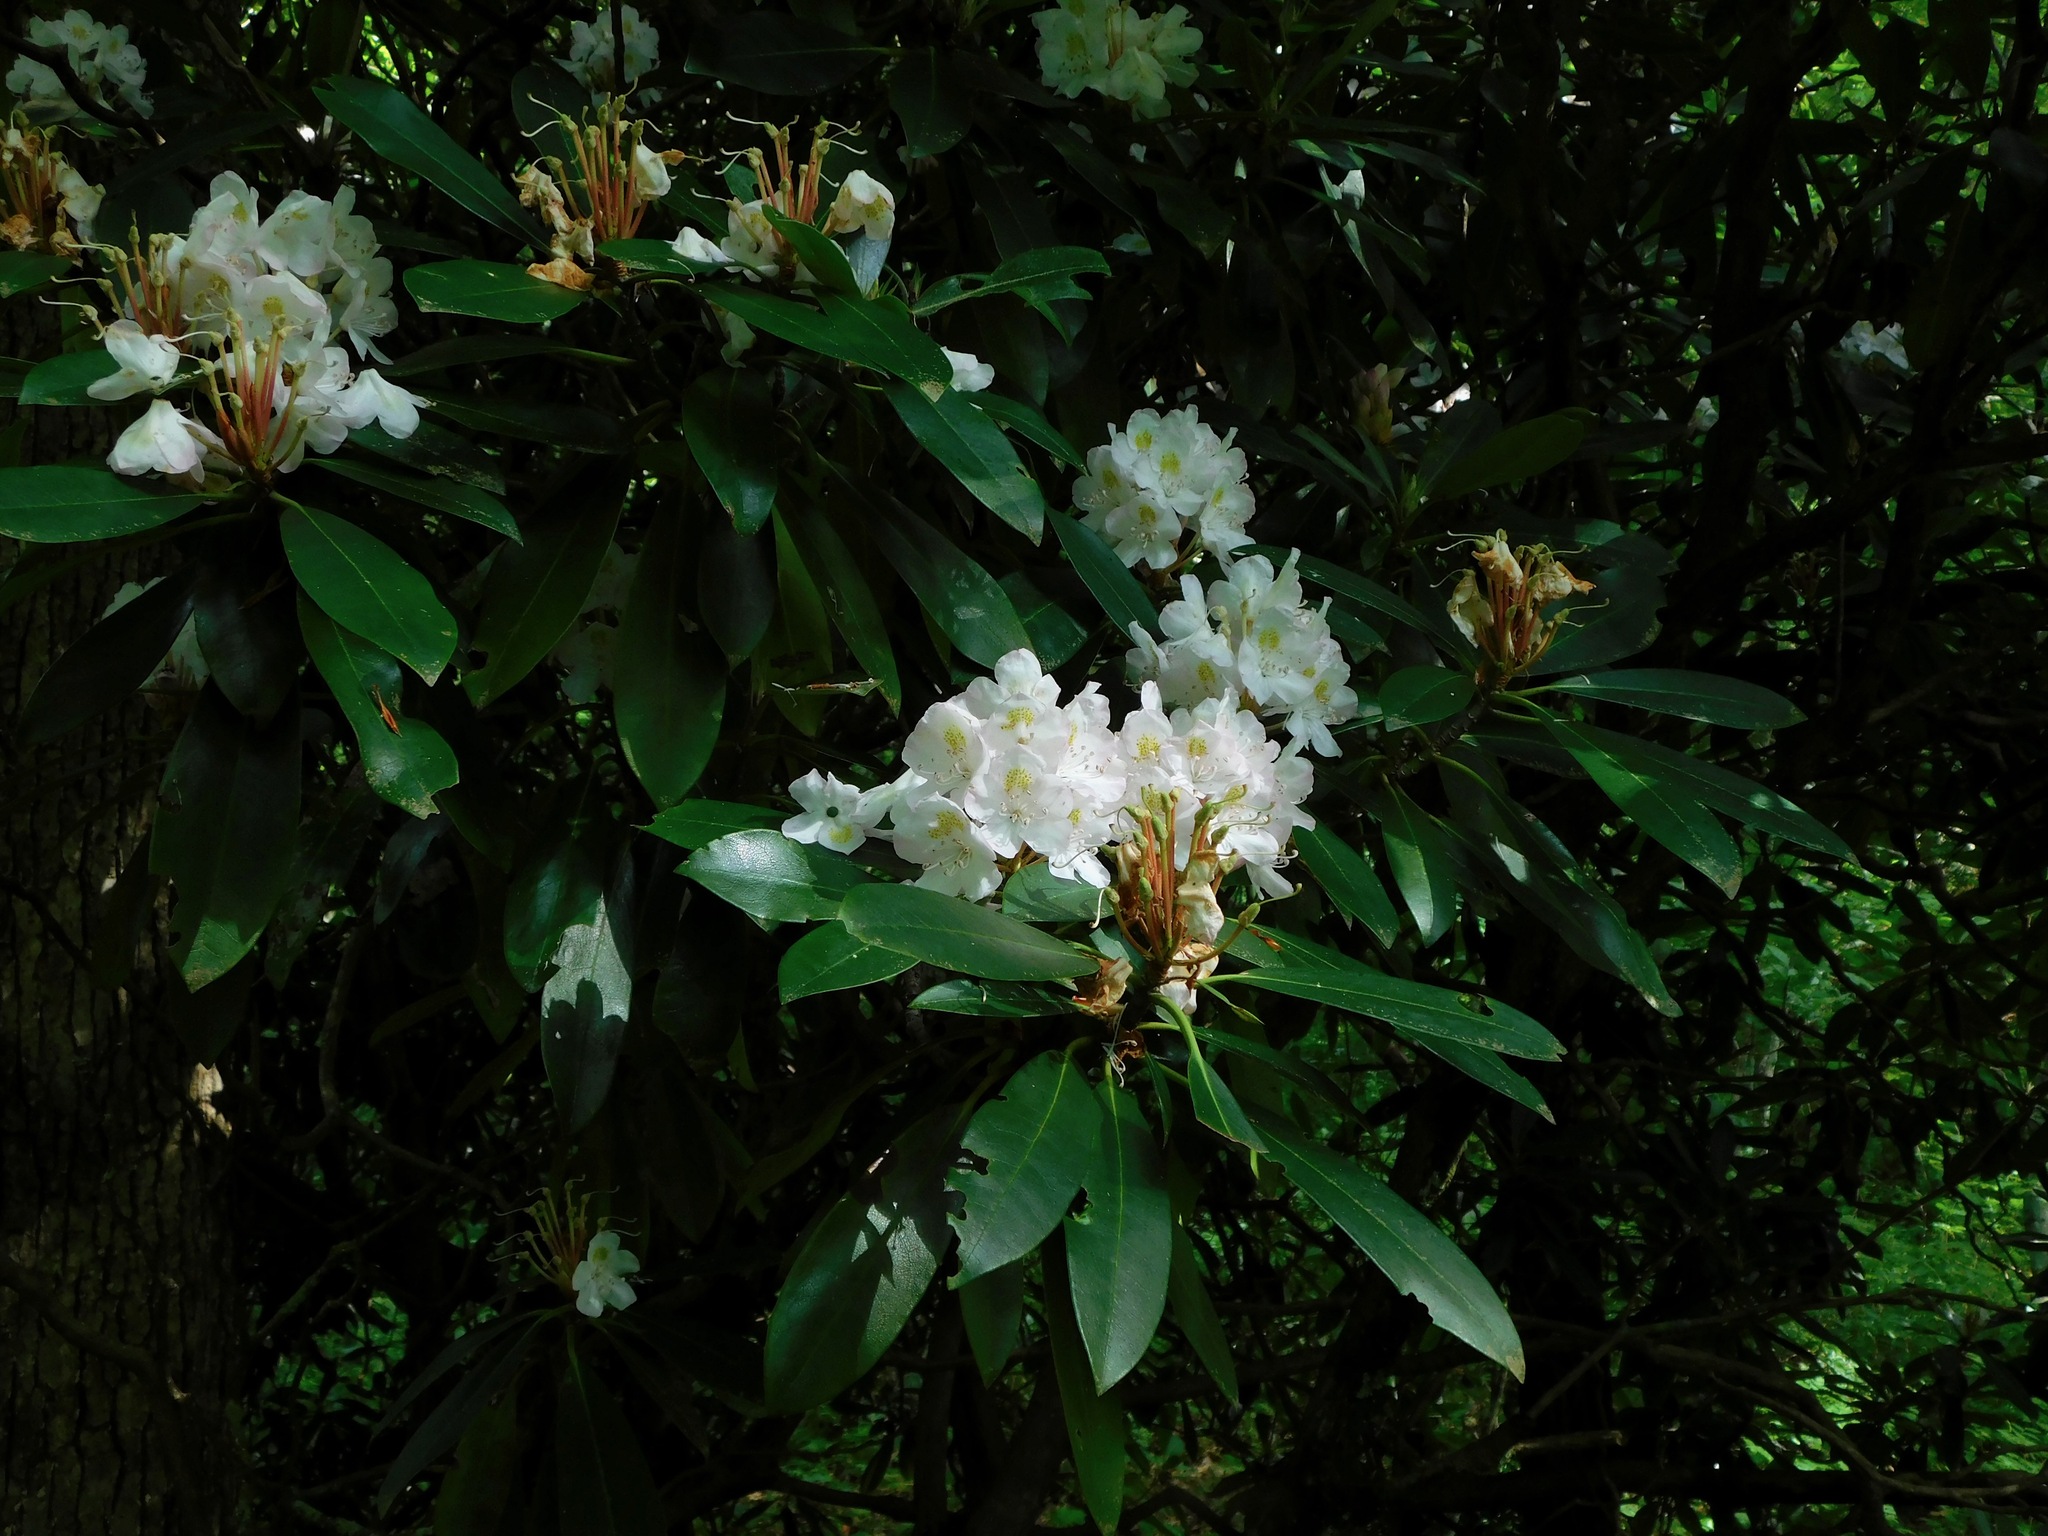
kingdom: Plantae
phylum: Tracheophyta
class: Magnoliopsida
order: Ericales
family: Ericaceae
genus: Rhododendron
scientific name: Rhododendron maximum
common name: Great rhododendron
